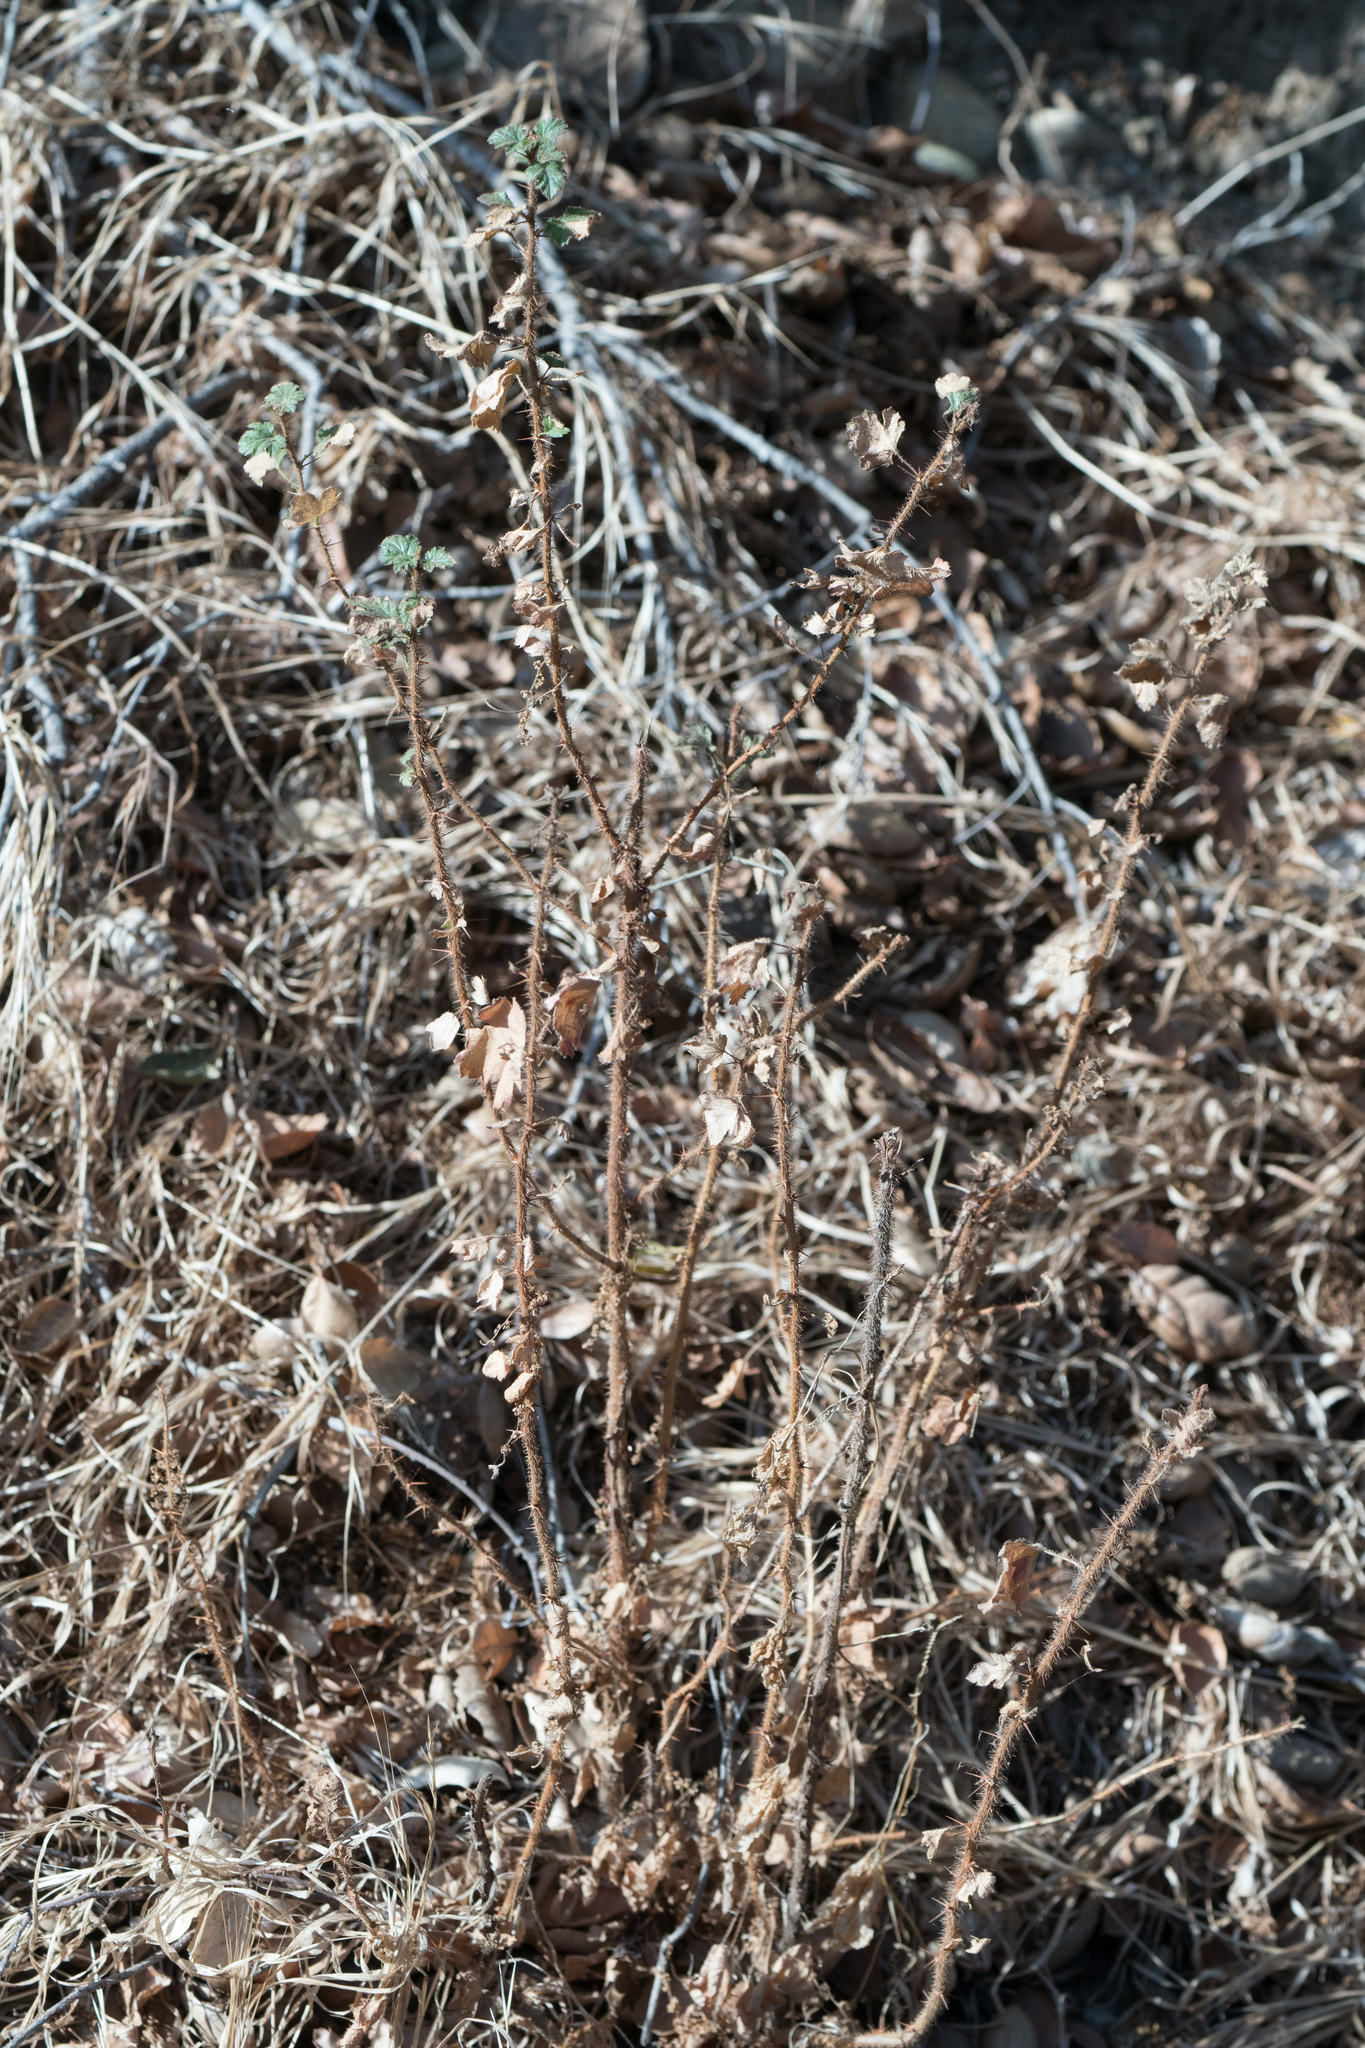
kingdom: Plantae
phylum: Tracheophyta
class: Magnoliopsida
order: Saxifragales
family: Grossulariaceae
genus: Ribes
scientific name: Ribes speciosum
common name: Fuchsia-flower gooseberry
